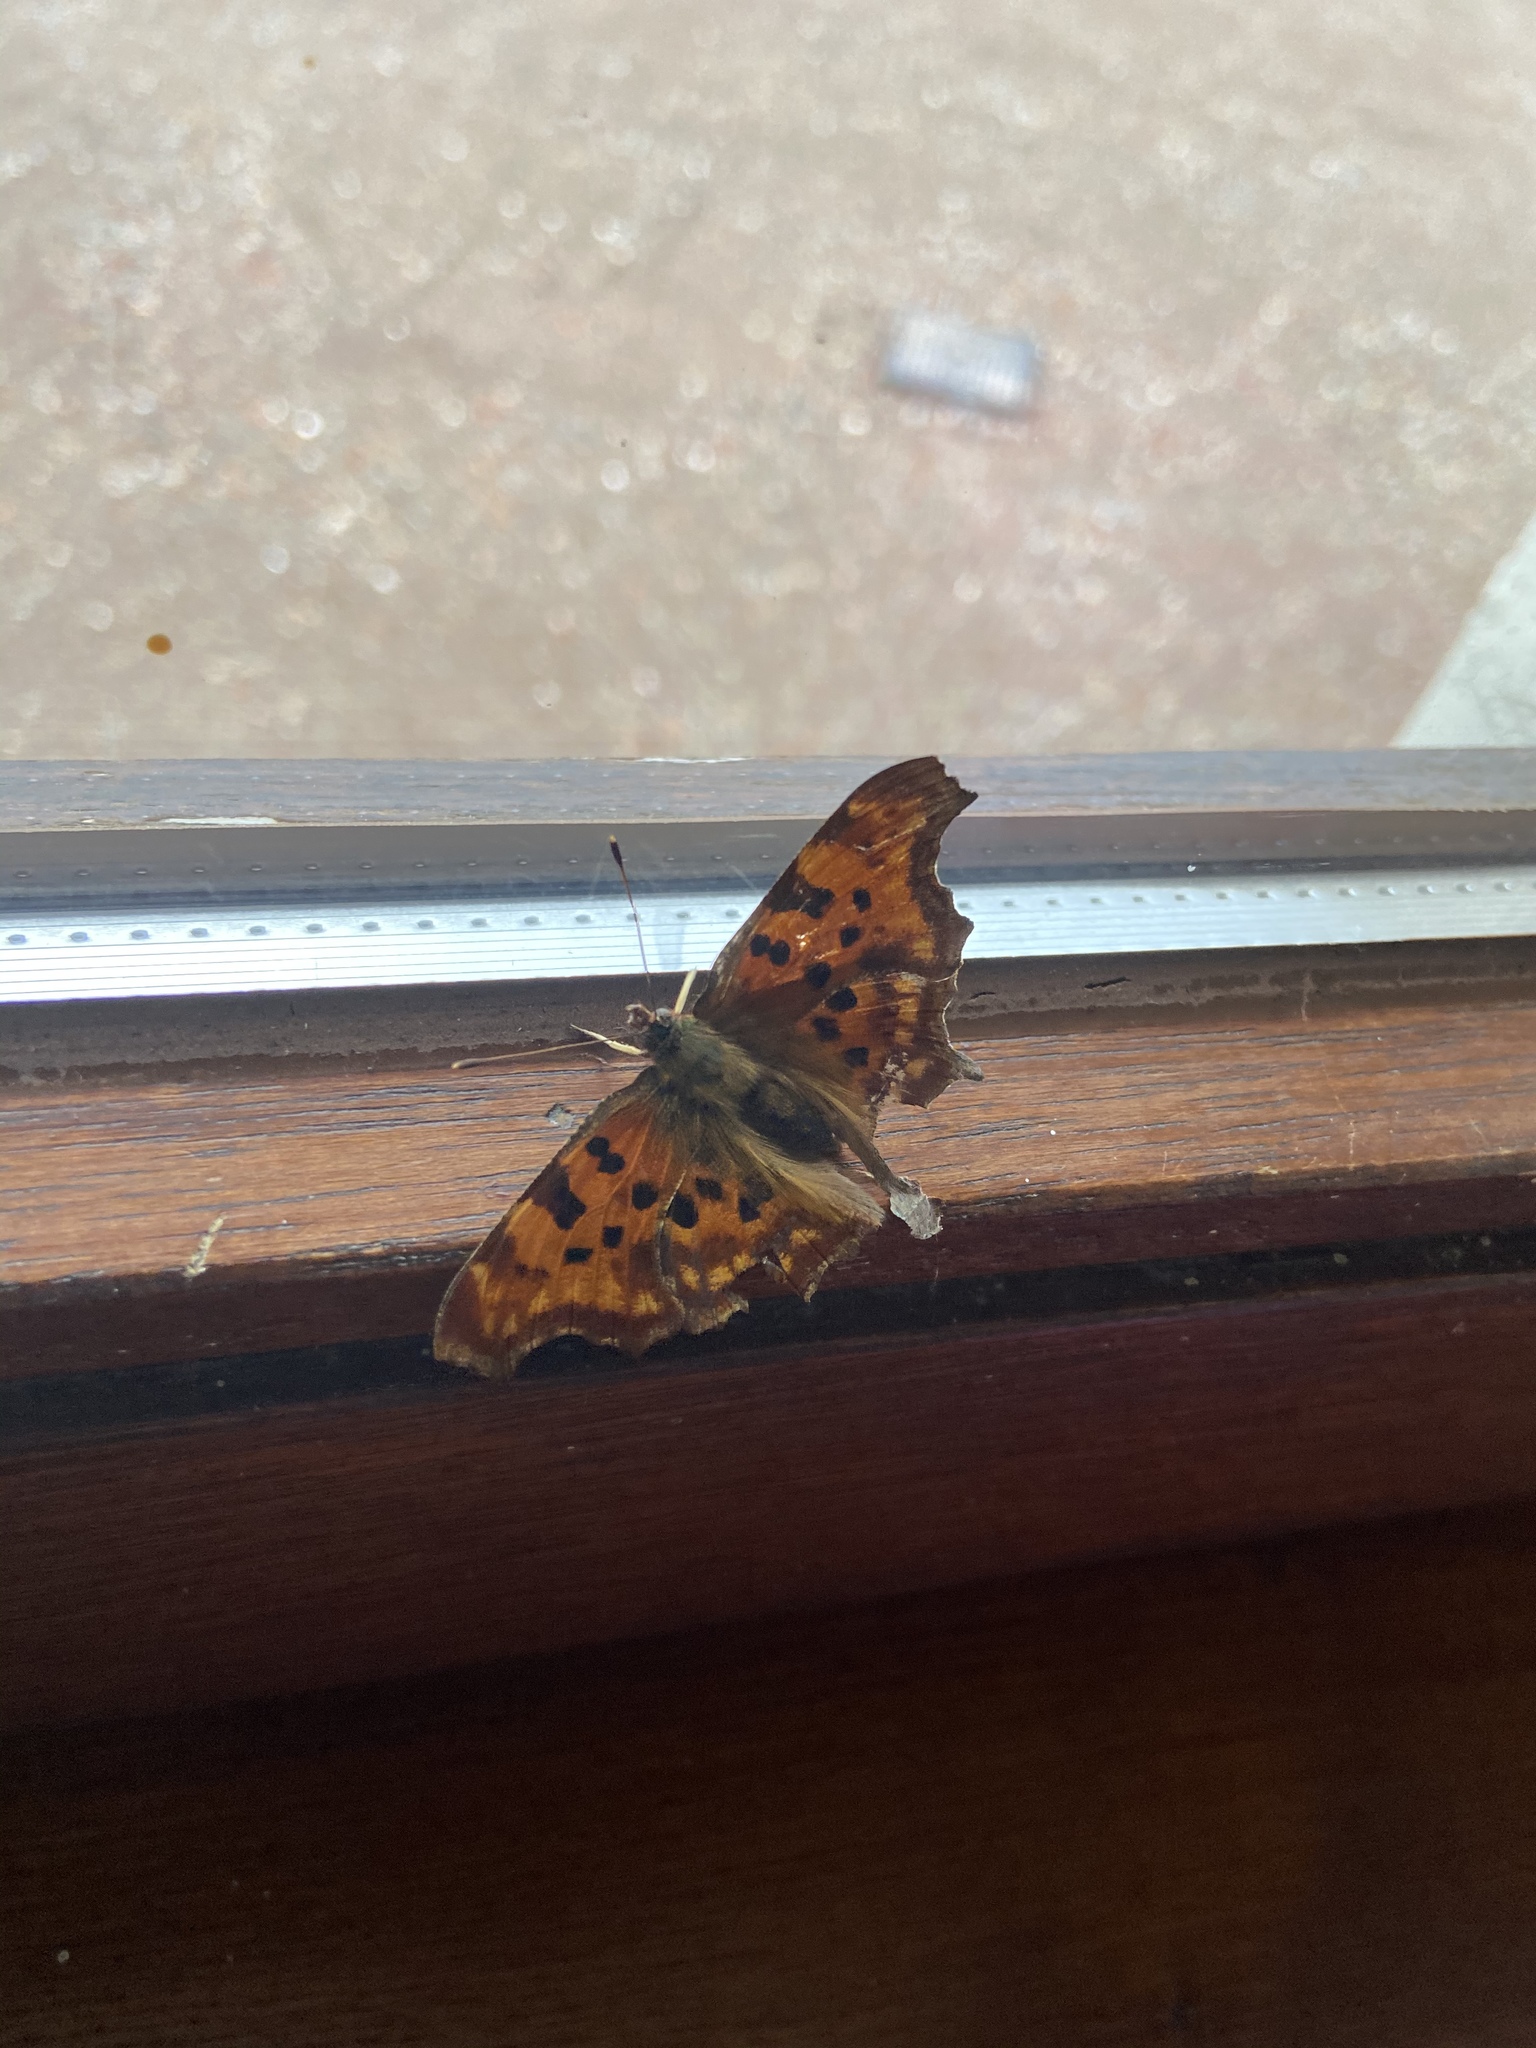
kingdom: Animalia
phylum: Arthropoda
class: Insecta
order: Lepidoptera
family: Nymphalidae
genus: Polygonia
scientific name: Polygonia c-album
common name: Comma
